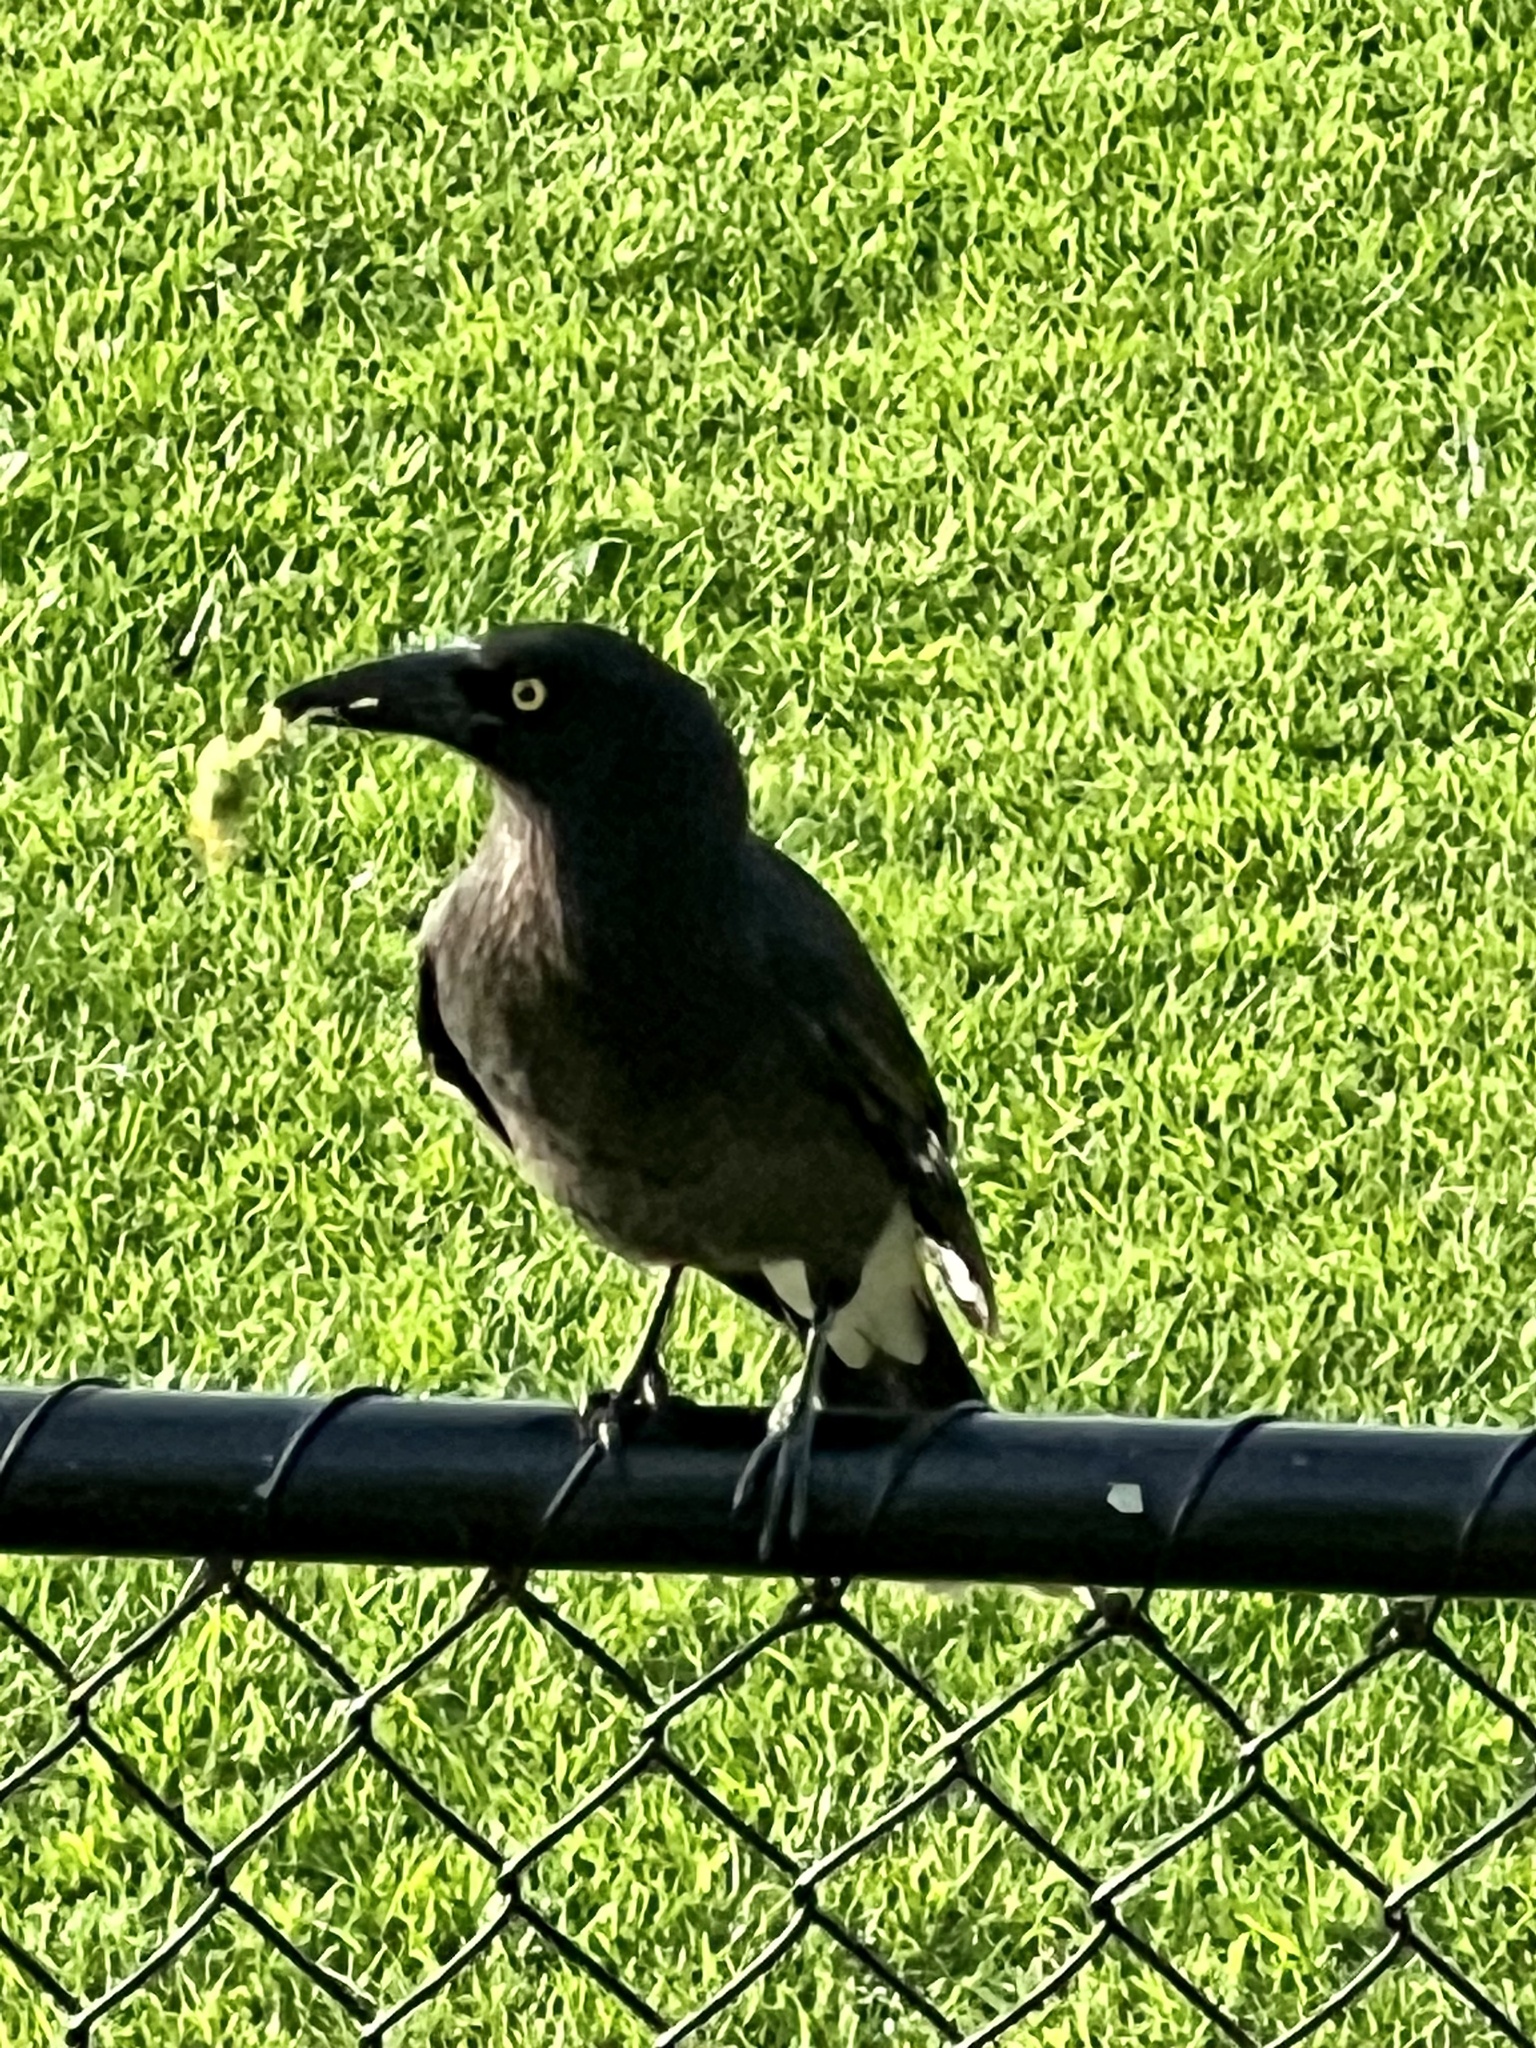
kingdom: Animalia
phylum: Chordata
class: Aves
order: Passeriformes
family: Cracticidae
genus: Strepera
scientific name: Strepera graculina
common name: Pied currawong
